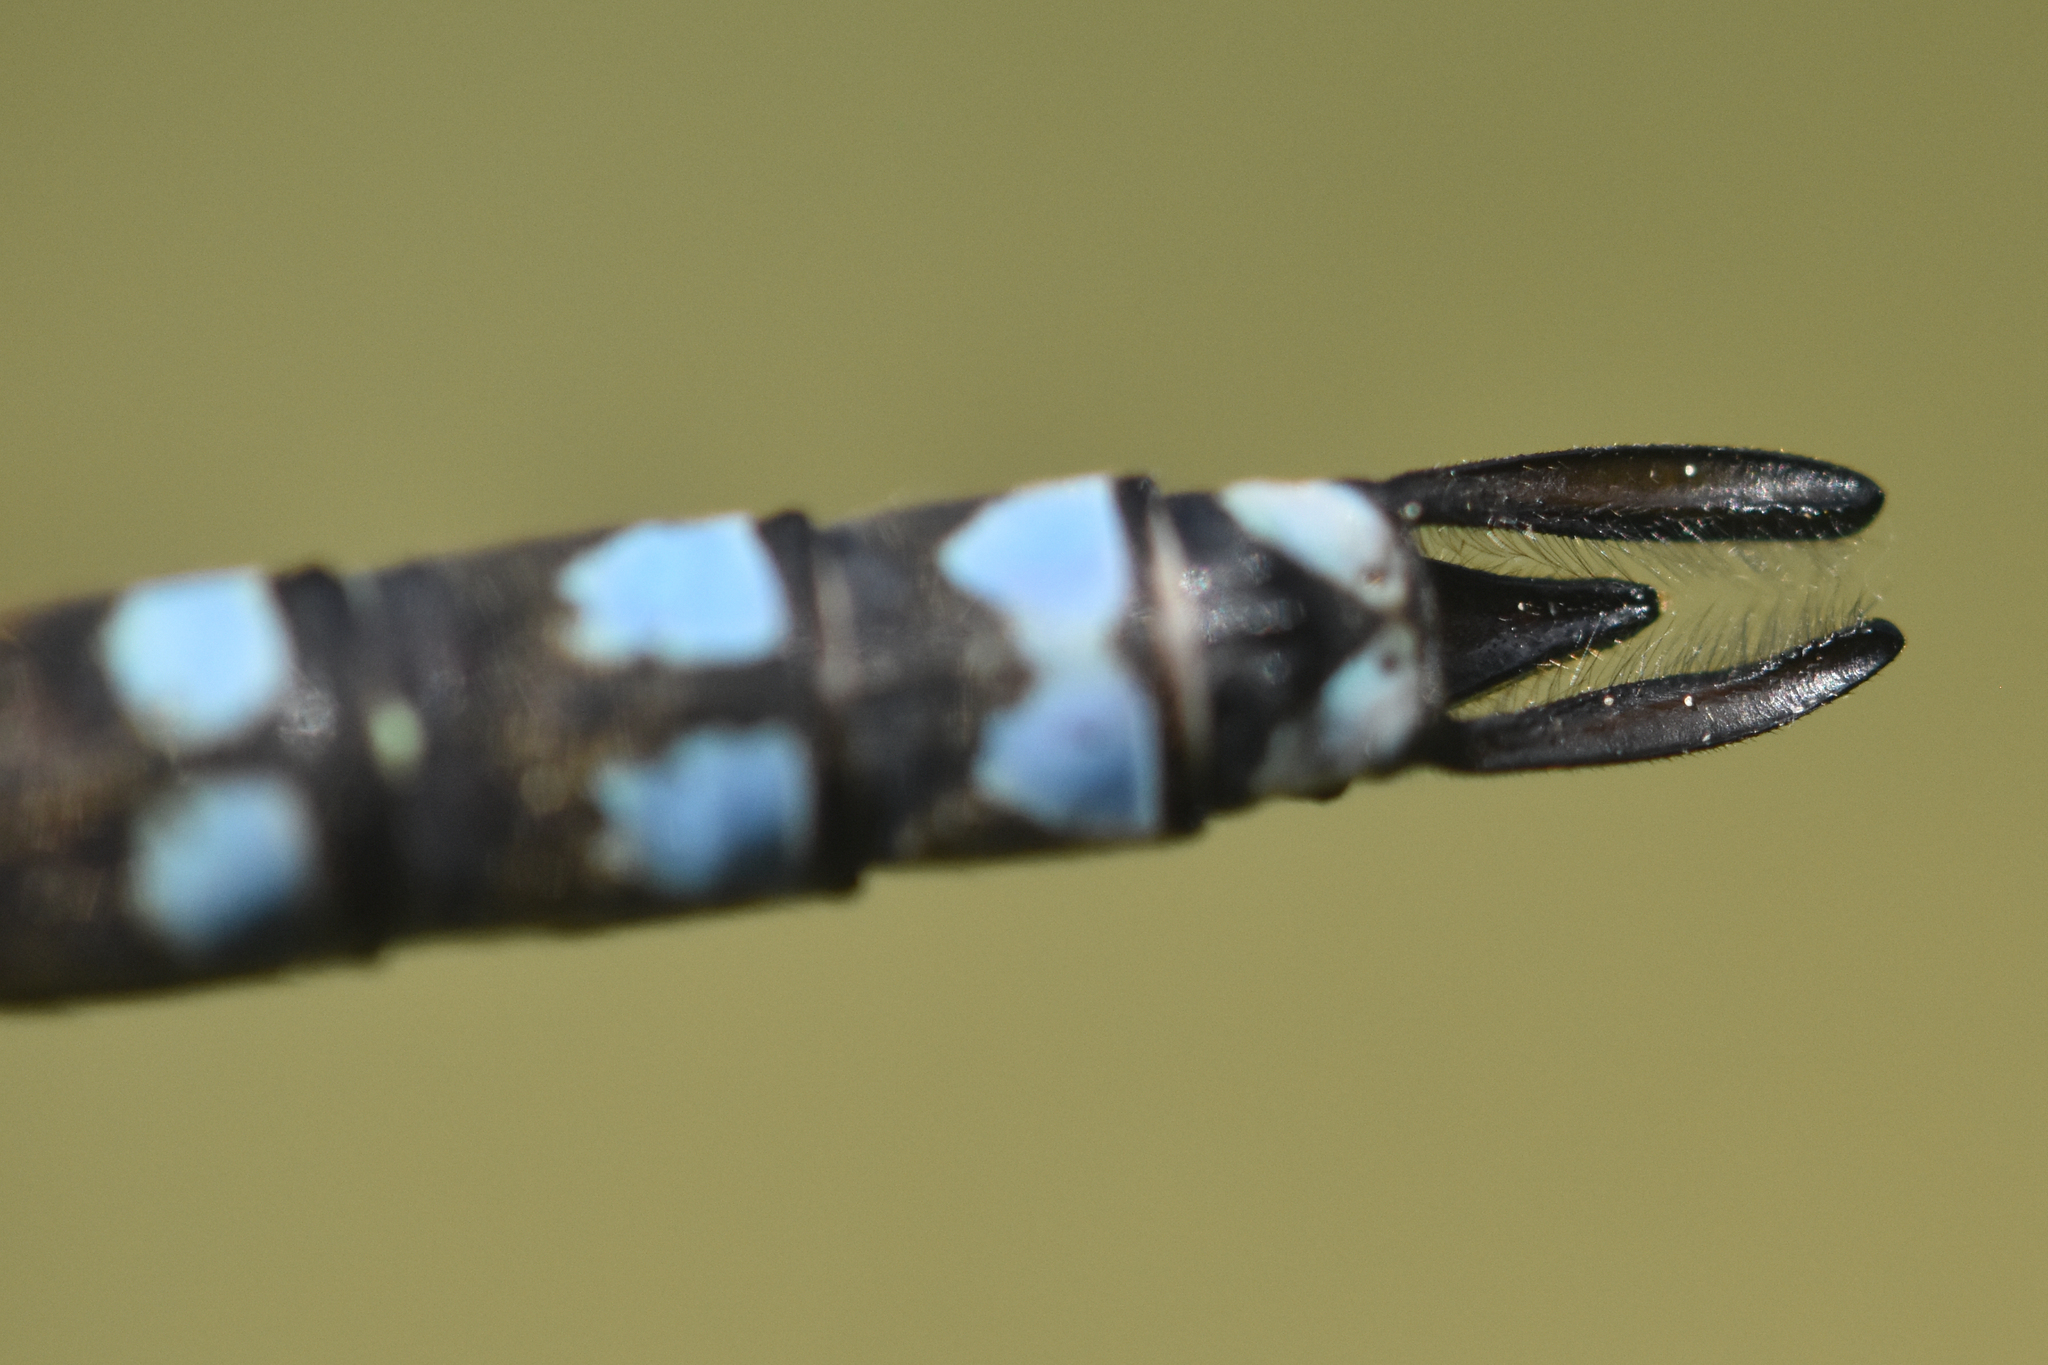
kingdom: Animalia
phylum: Arthropoda
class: Insecta
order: Odonata
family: Aeshnidae
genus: Aeshna
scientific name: Aeshna eremita
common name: Lake darner
